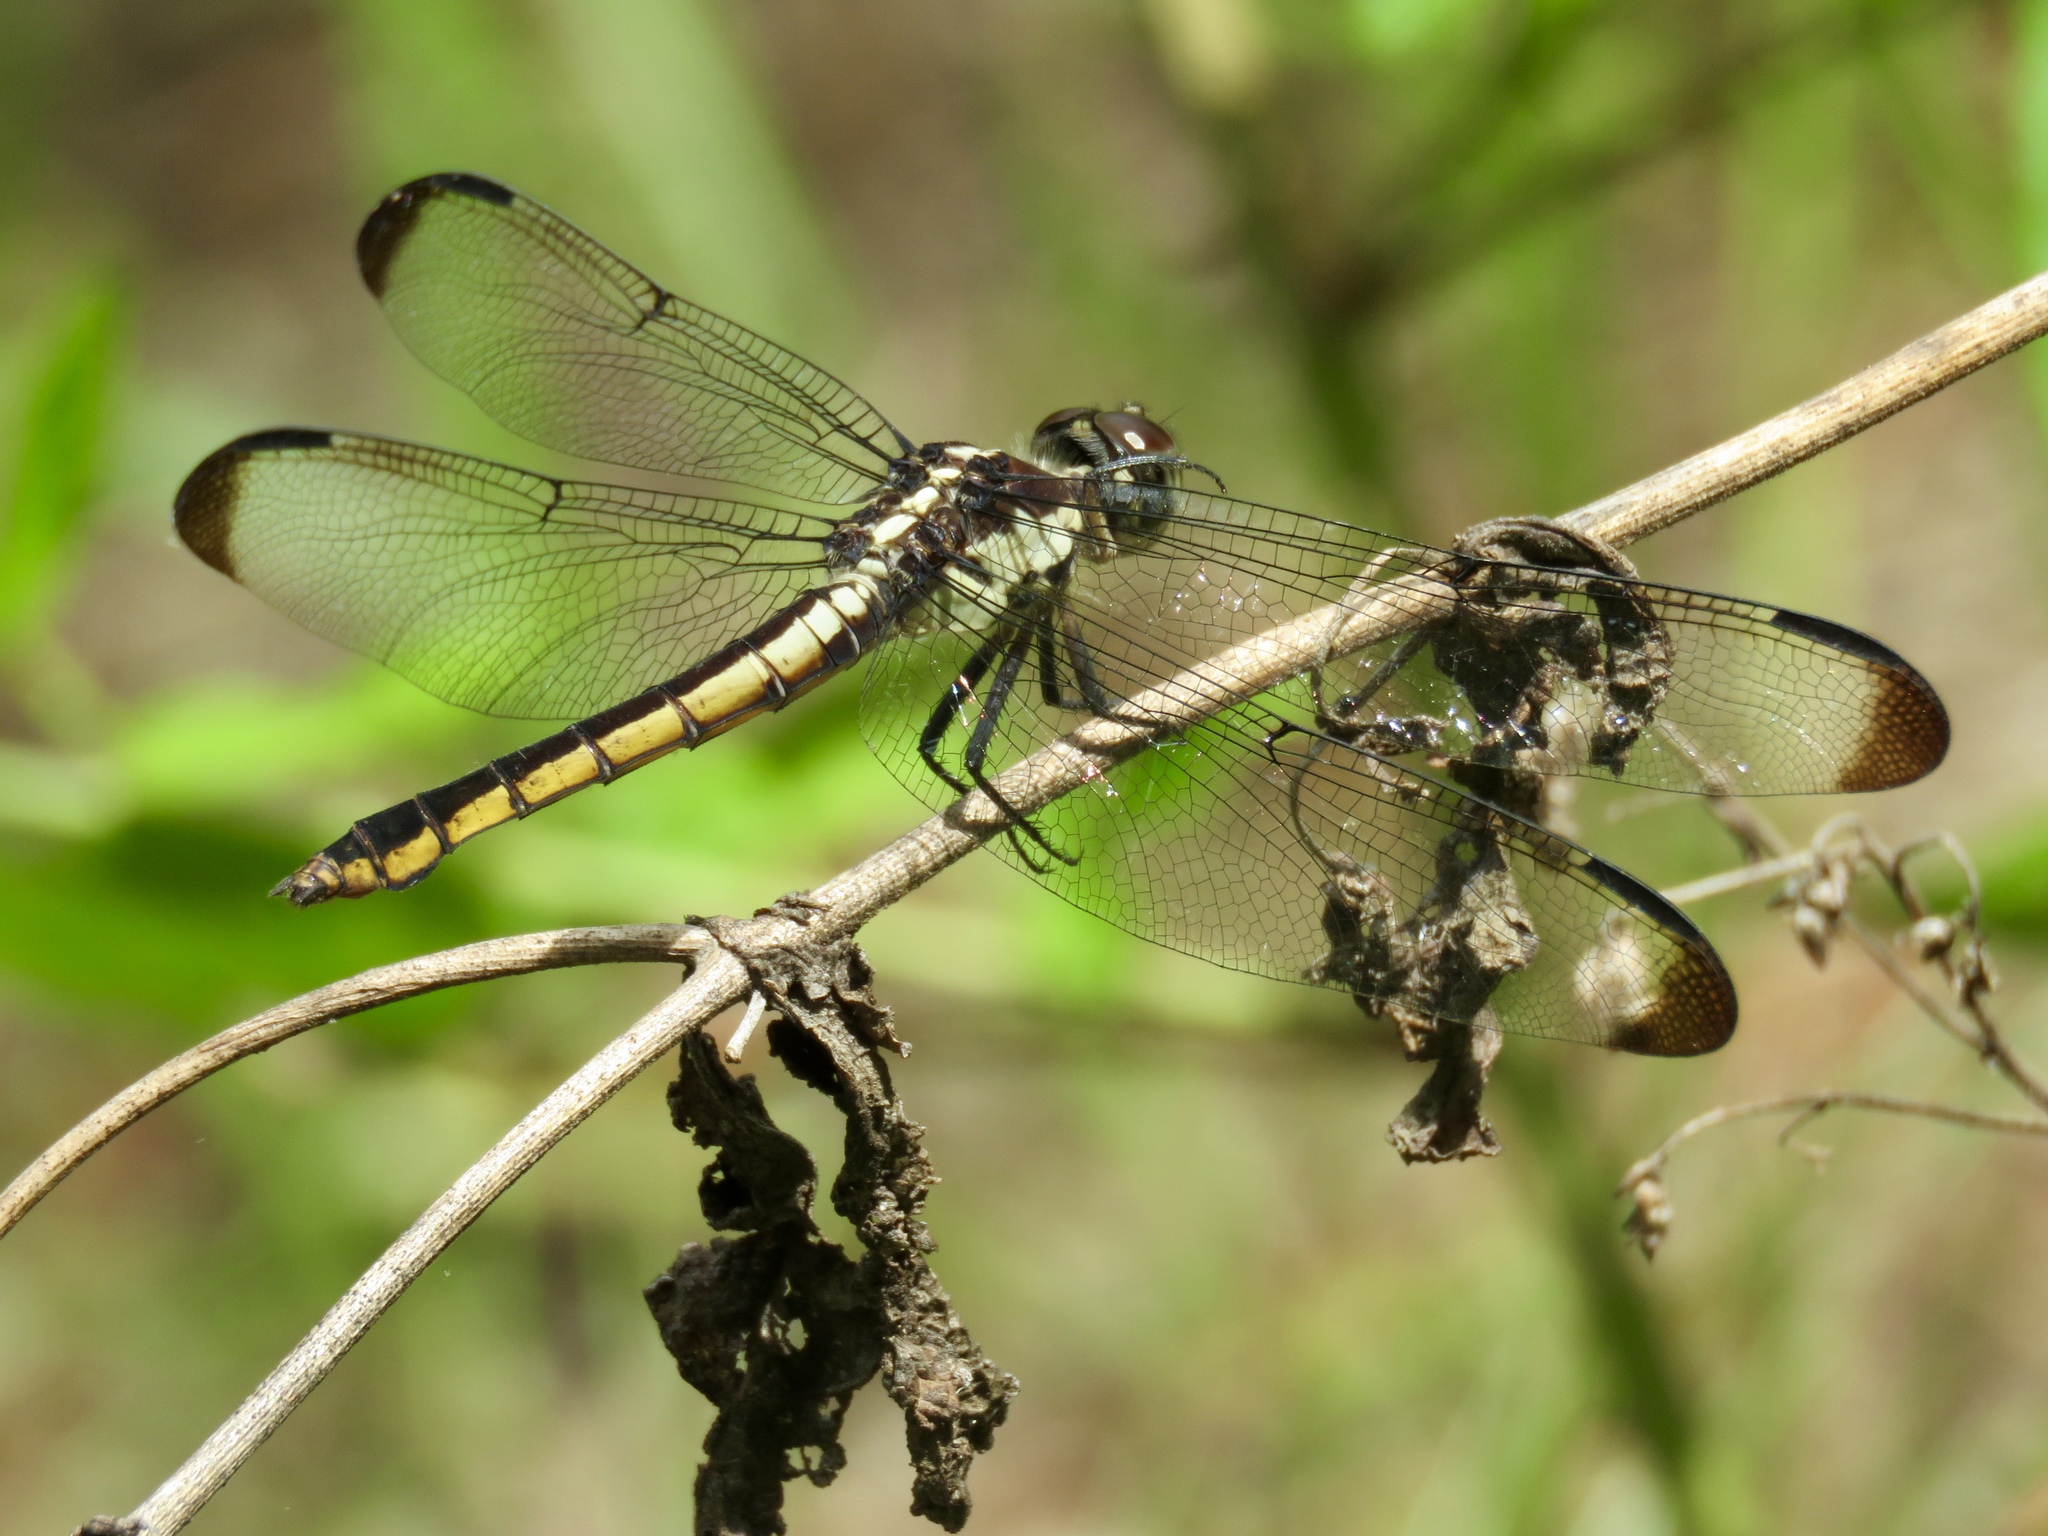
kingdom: Animalia
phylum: Arthropoda
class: Insecta
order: Odonata
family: Libellulidae
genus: Libellula
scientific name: Libellula incesta
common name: Slaty skimmer
